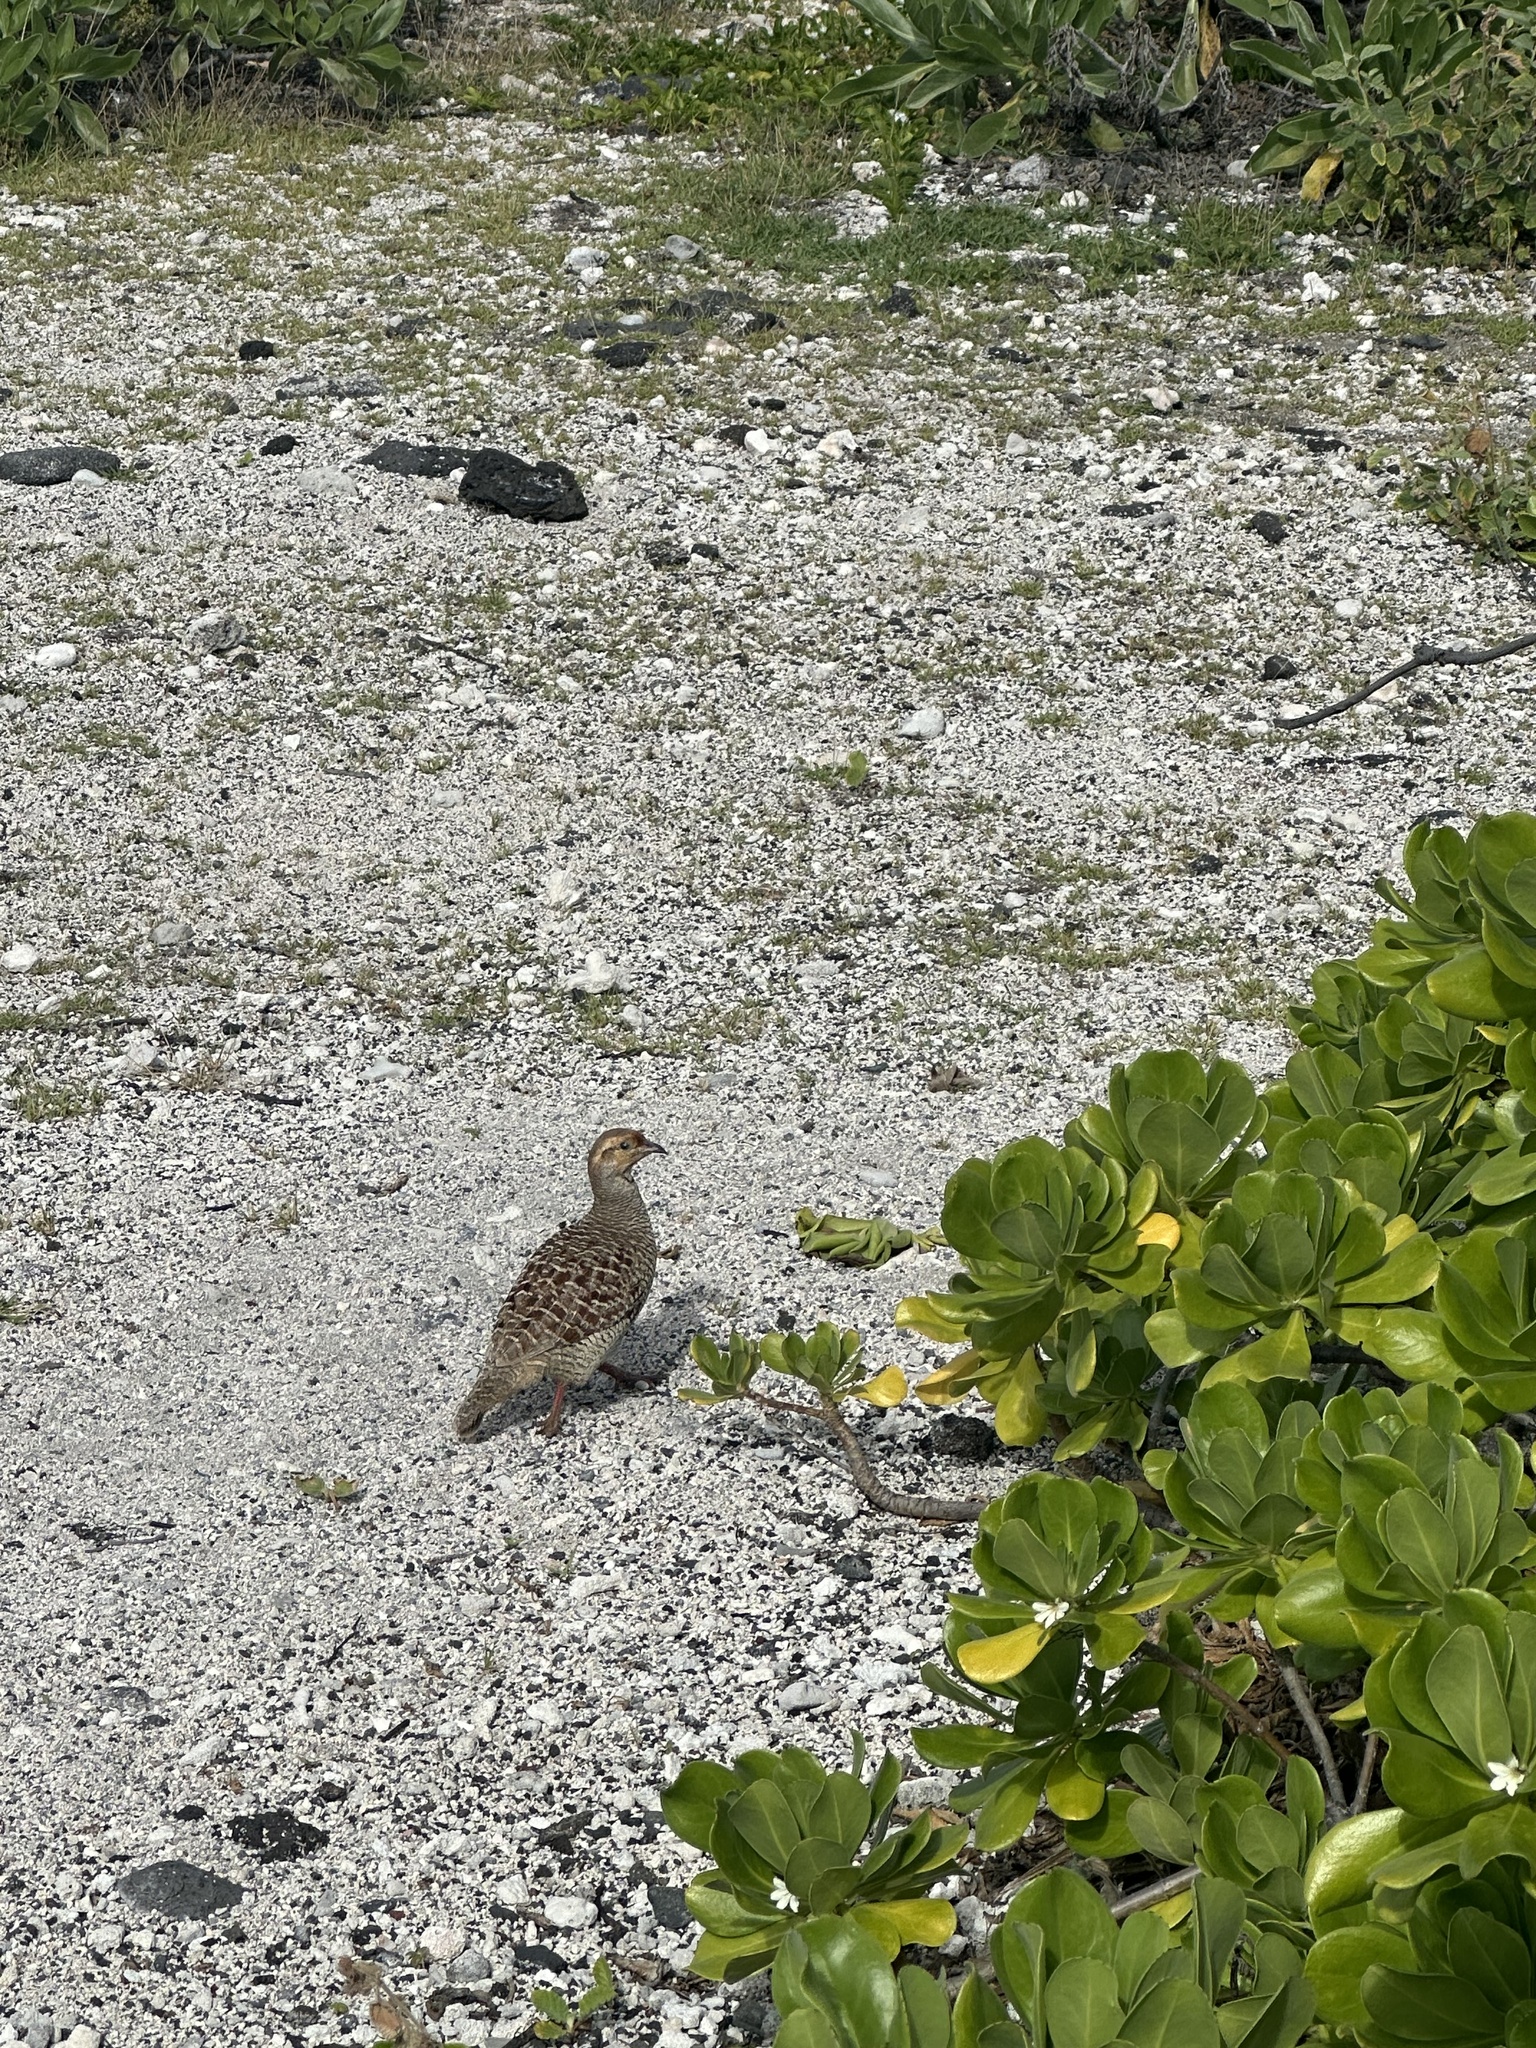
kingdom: Animalia
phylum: Chordata
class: Aves
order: Galliformes
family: Phasianidae
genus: Ortygornis
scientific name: Ortygornis pondicerianus
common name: Grey francolin
